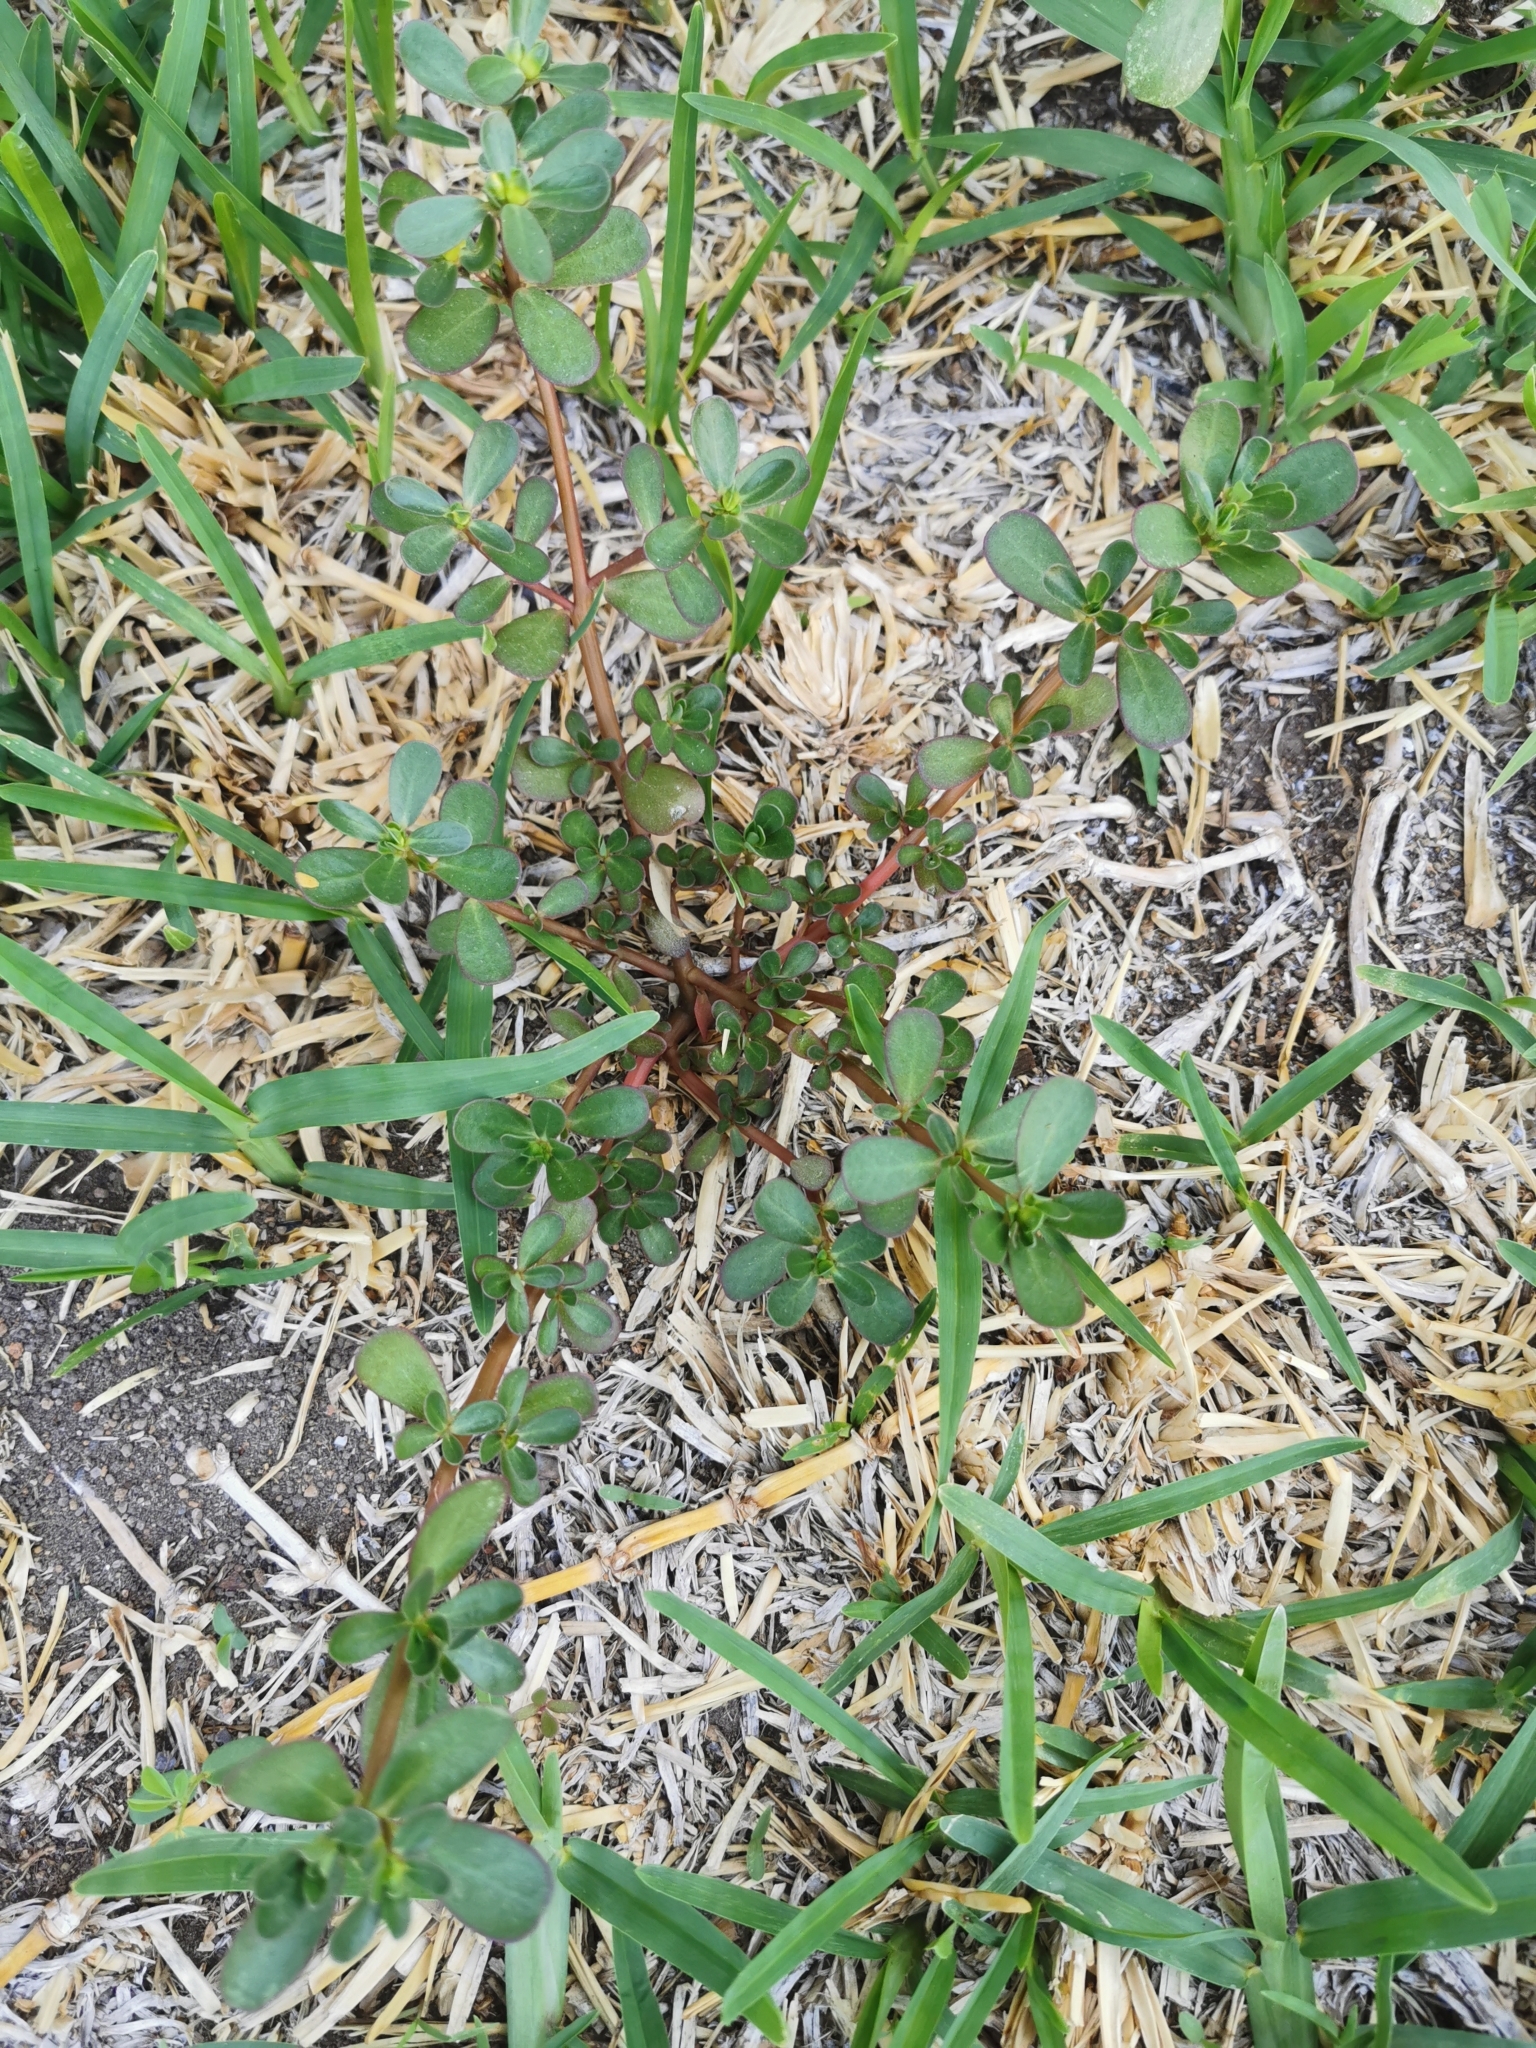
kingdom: Plantae
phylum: Tracheophyta
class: Magnoliopsida
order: Caryophyllales
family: Portulacaceae
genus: Portulaca
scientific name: Portulaca oleracea
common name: Common purslane
